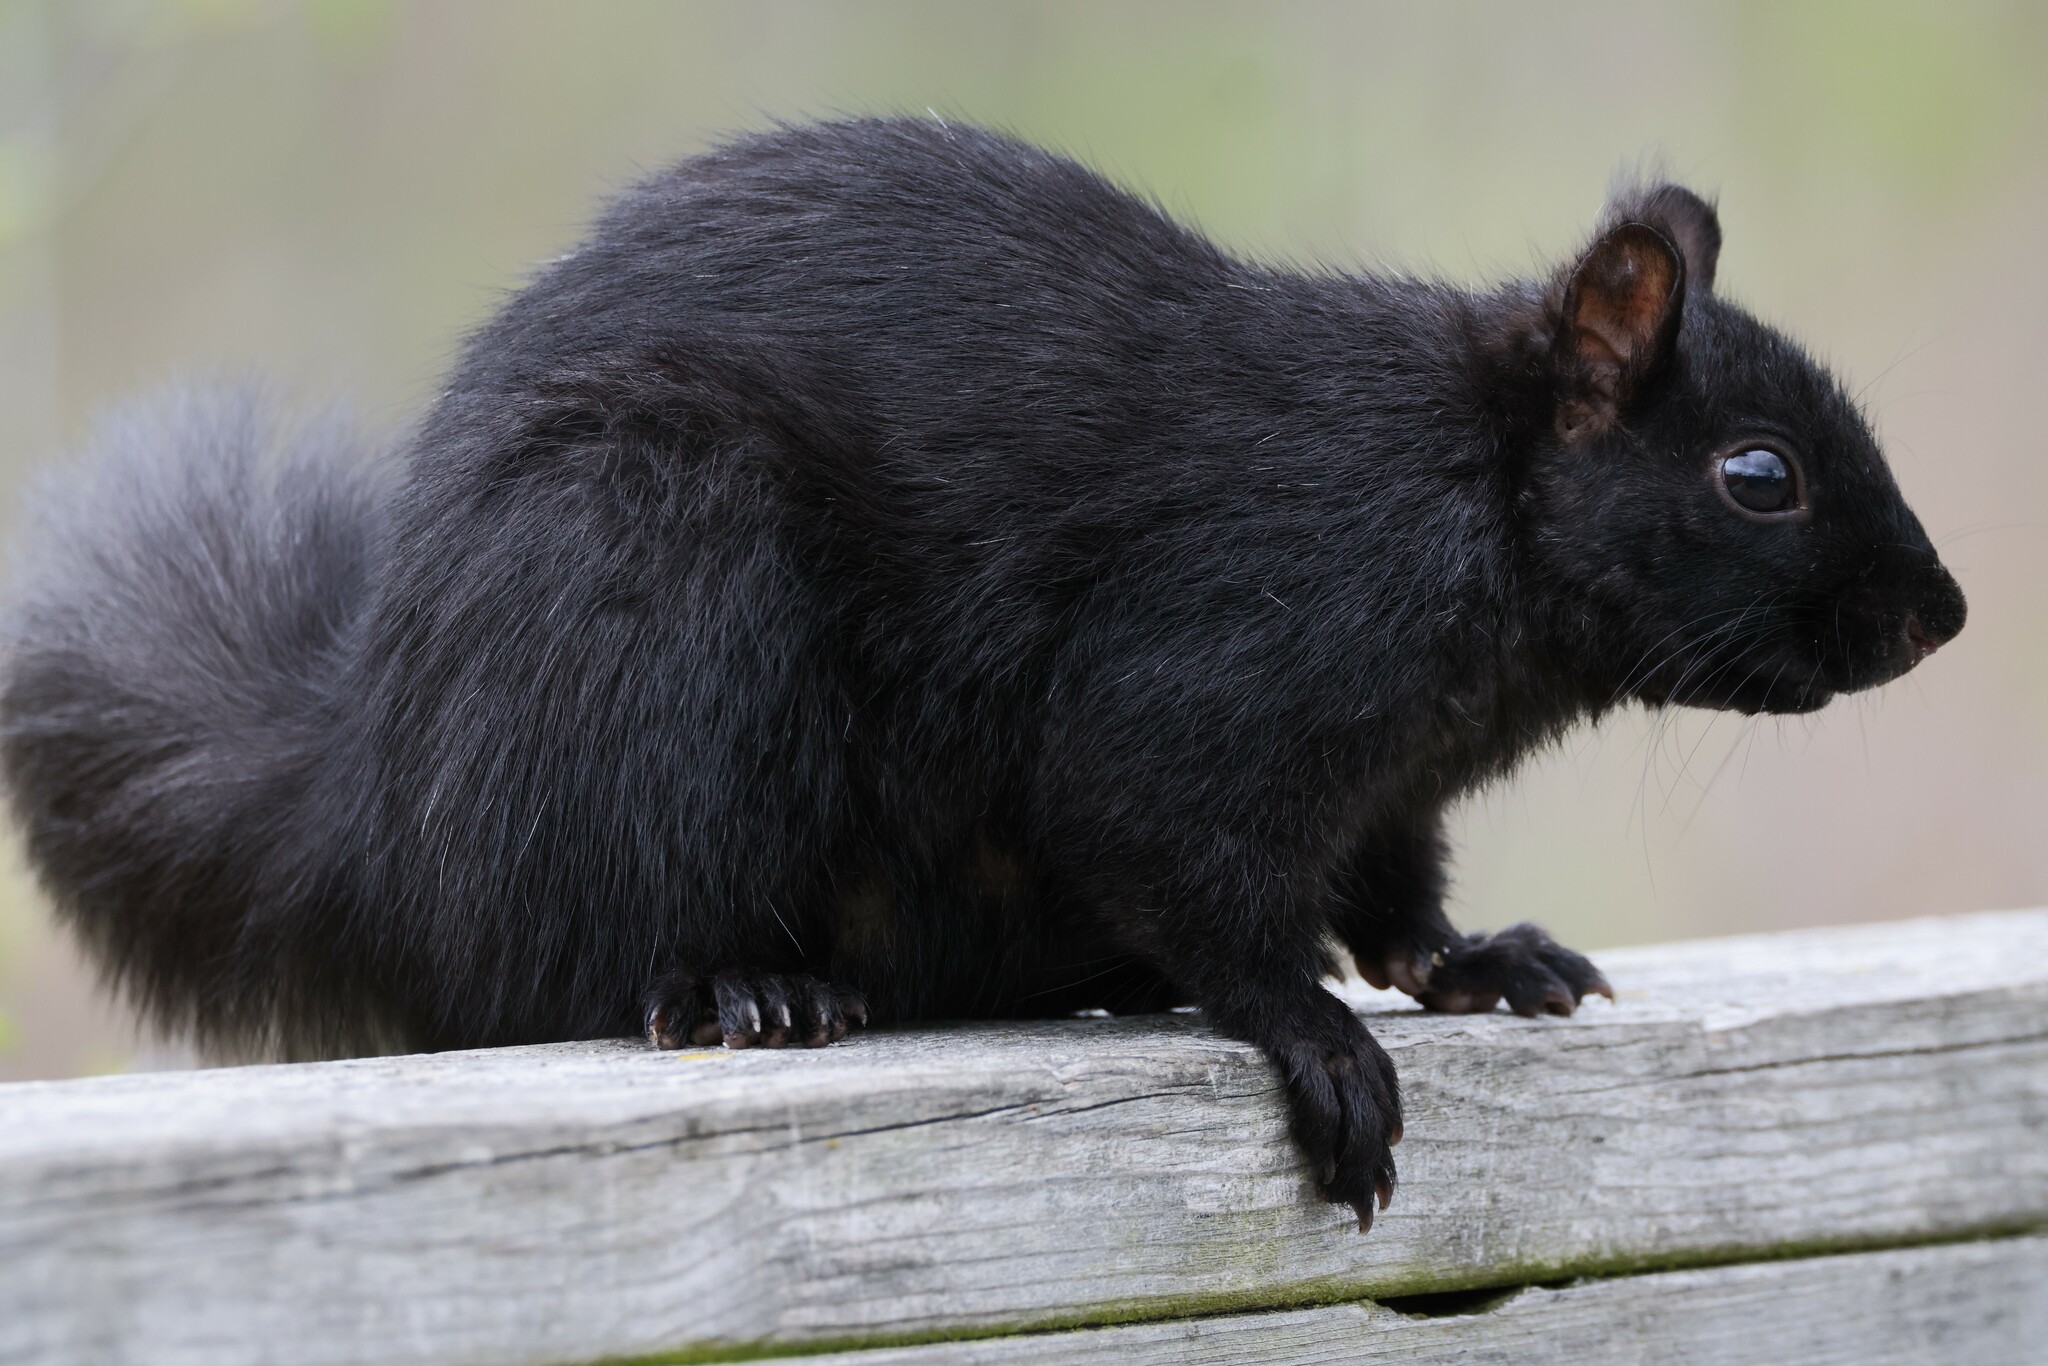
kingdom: Animalia
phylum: Chordata
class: Mammalia
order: Rodentia
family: Sciuridae
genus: Sciurus
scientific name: Sciurus carolinensis
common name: Eastern gray squirrel
